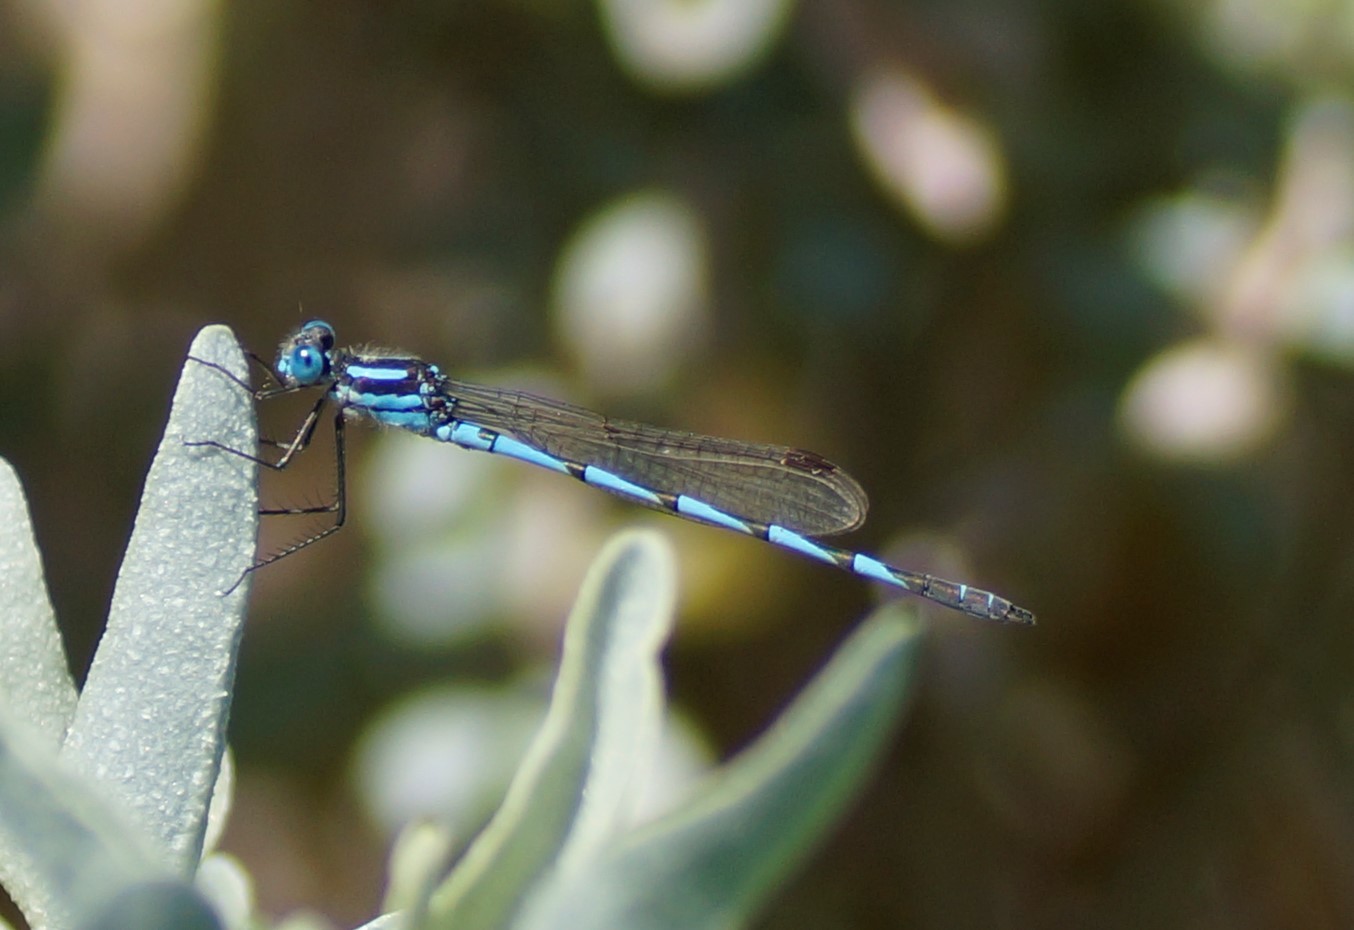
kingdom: Animalia
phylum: Arthropoda
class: Insecta
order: Odonata
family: Lestidae
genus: Austrolestes
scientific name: Austrolestes annulosus
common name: Blue ringtail
